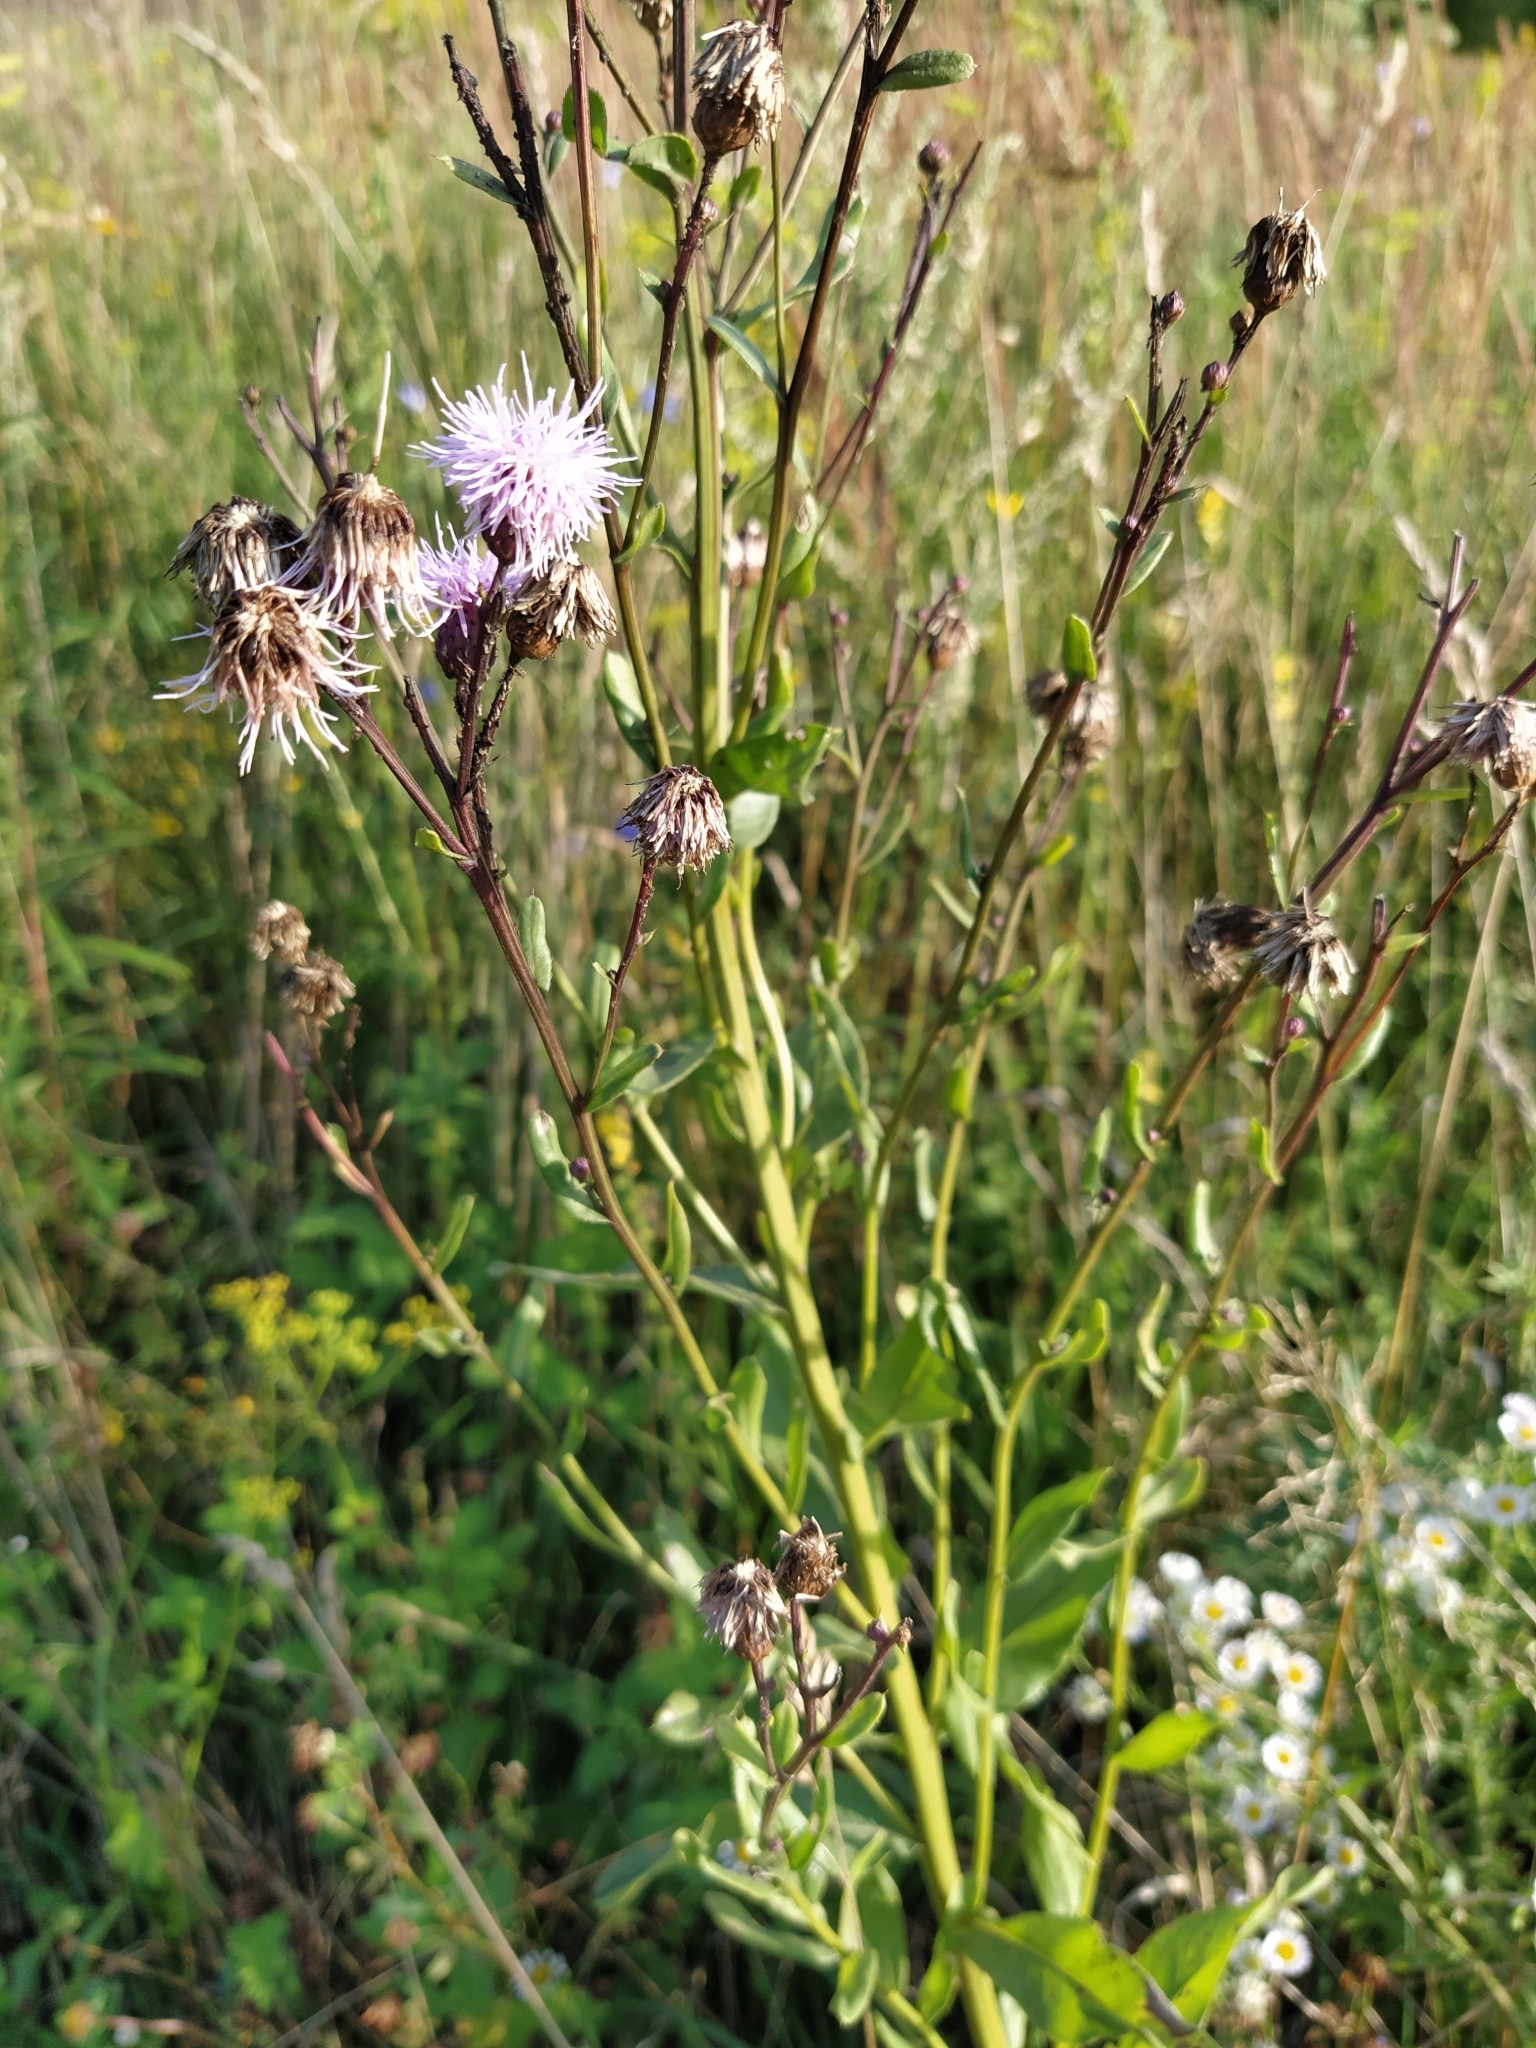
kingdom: Plantae
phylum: Tracheophyta
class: Magnoliopsida
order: Asterales
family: Asteraceae
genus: Cirsium
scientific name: Cirsium arvense
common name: Creeping thistle
